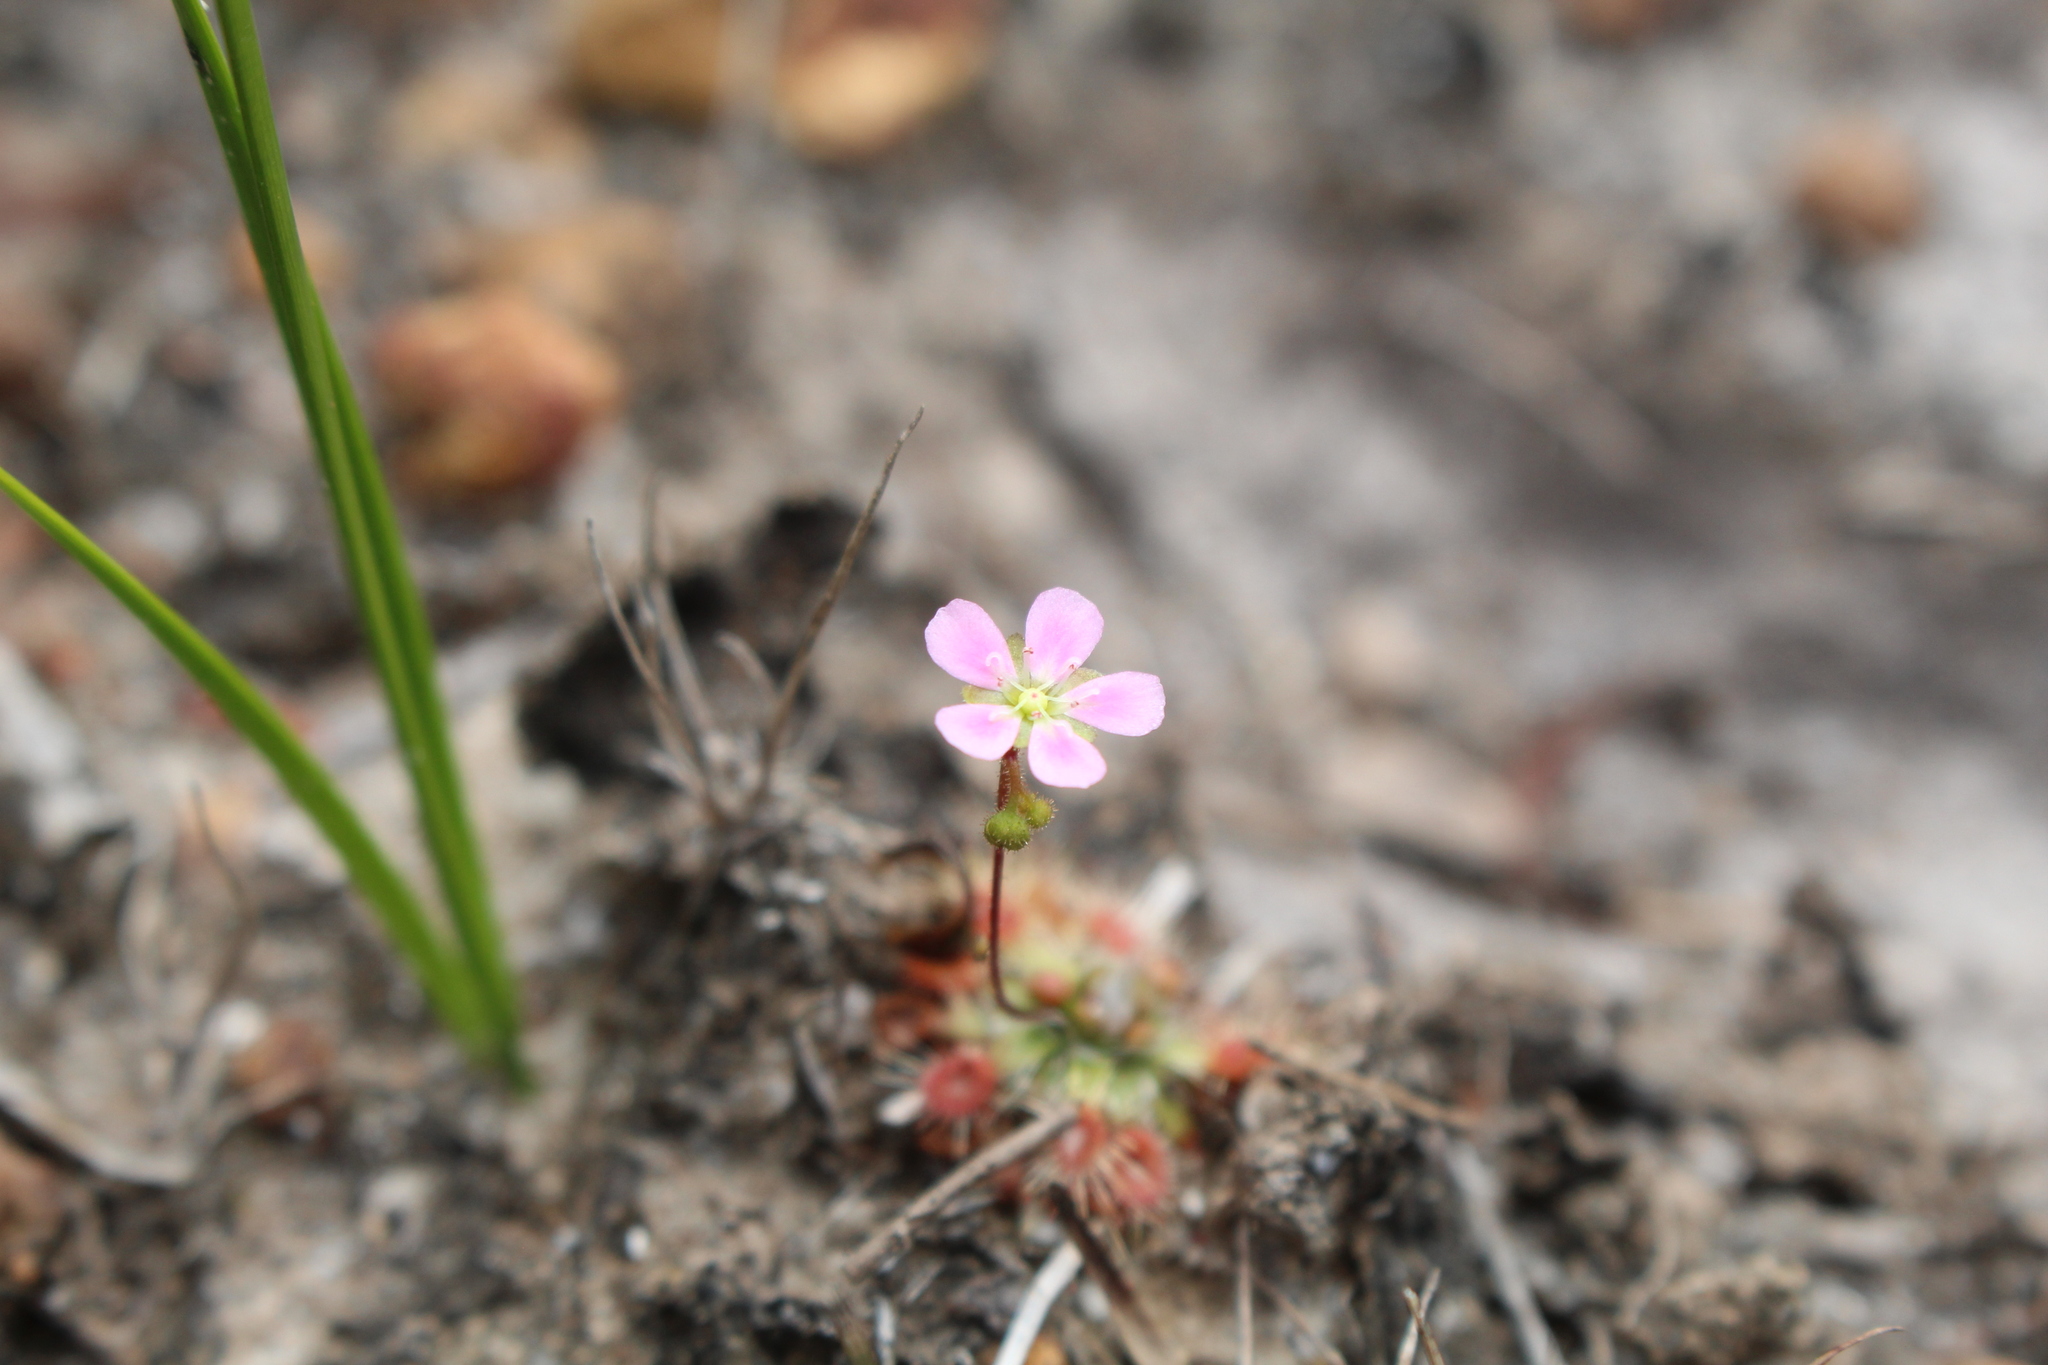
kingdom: Plantae
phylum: Tracheophyta
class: Magnoliopsida
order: Caryophyllales
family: Droseraceae
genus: Drosera
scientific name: Drosera pulchella
